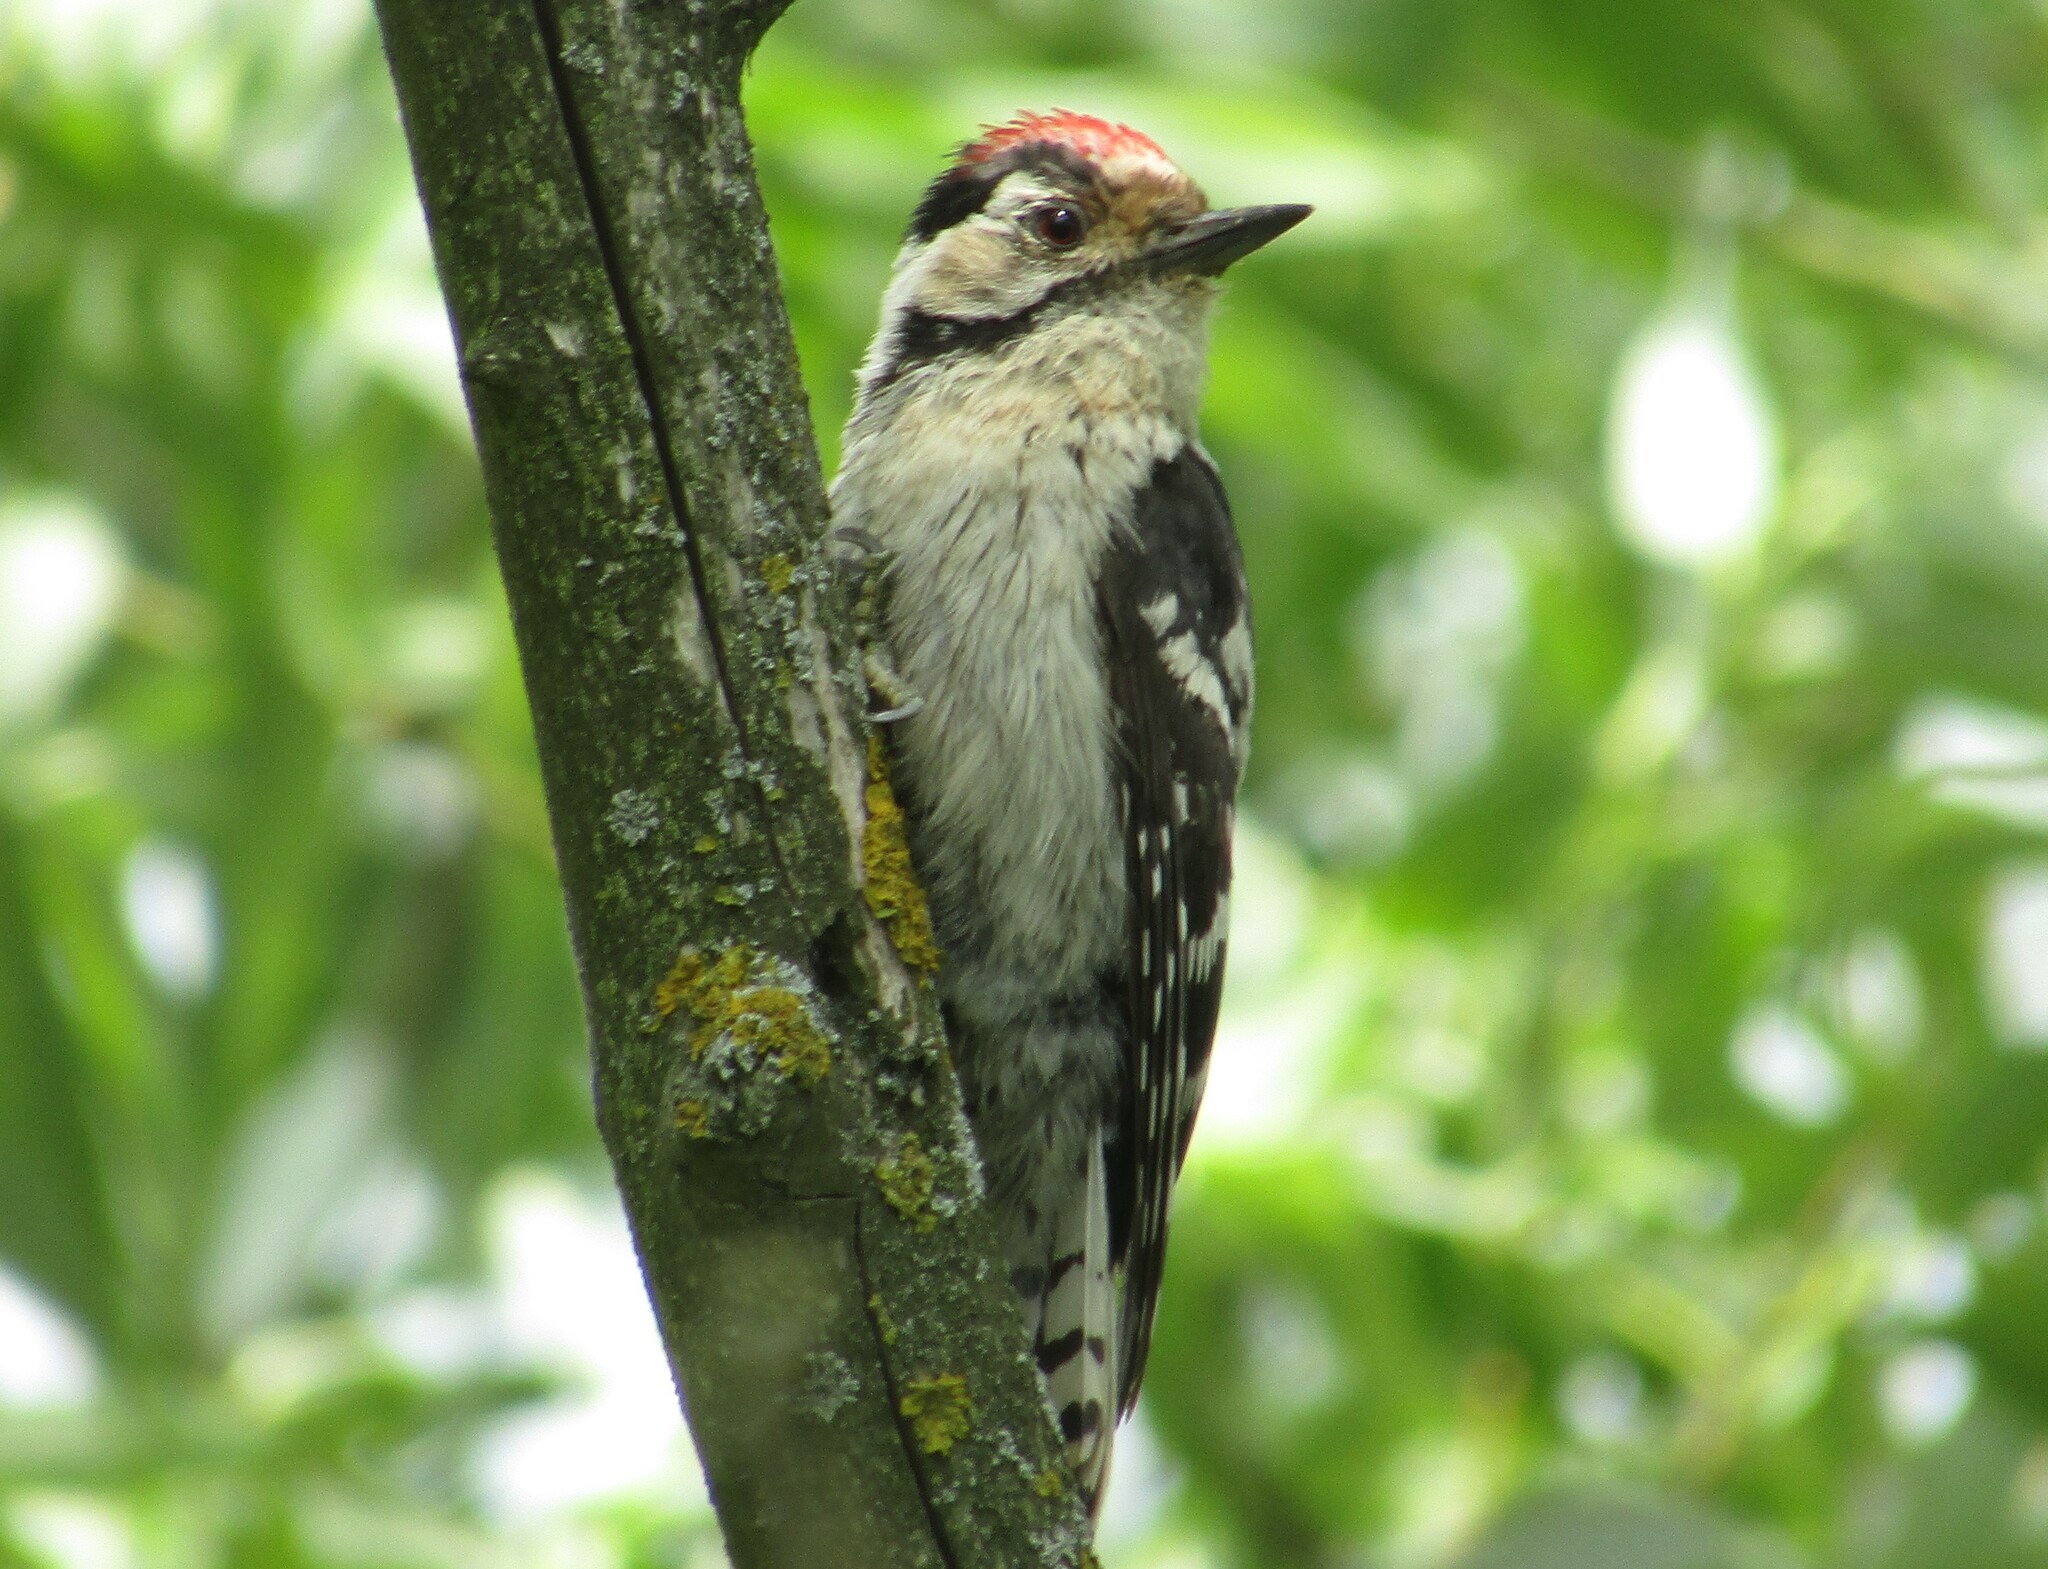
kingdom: Animalia
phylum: Chordata
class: Aves
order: Piciformes
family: Picidae
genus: Dryobates
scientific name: Dryobates minor
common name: Lesser spotted woodpecker
